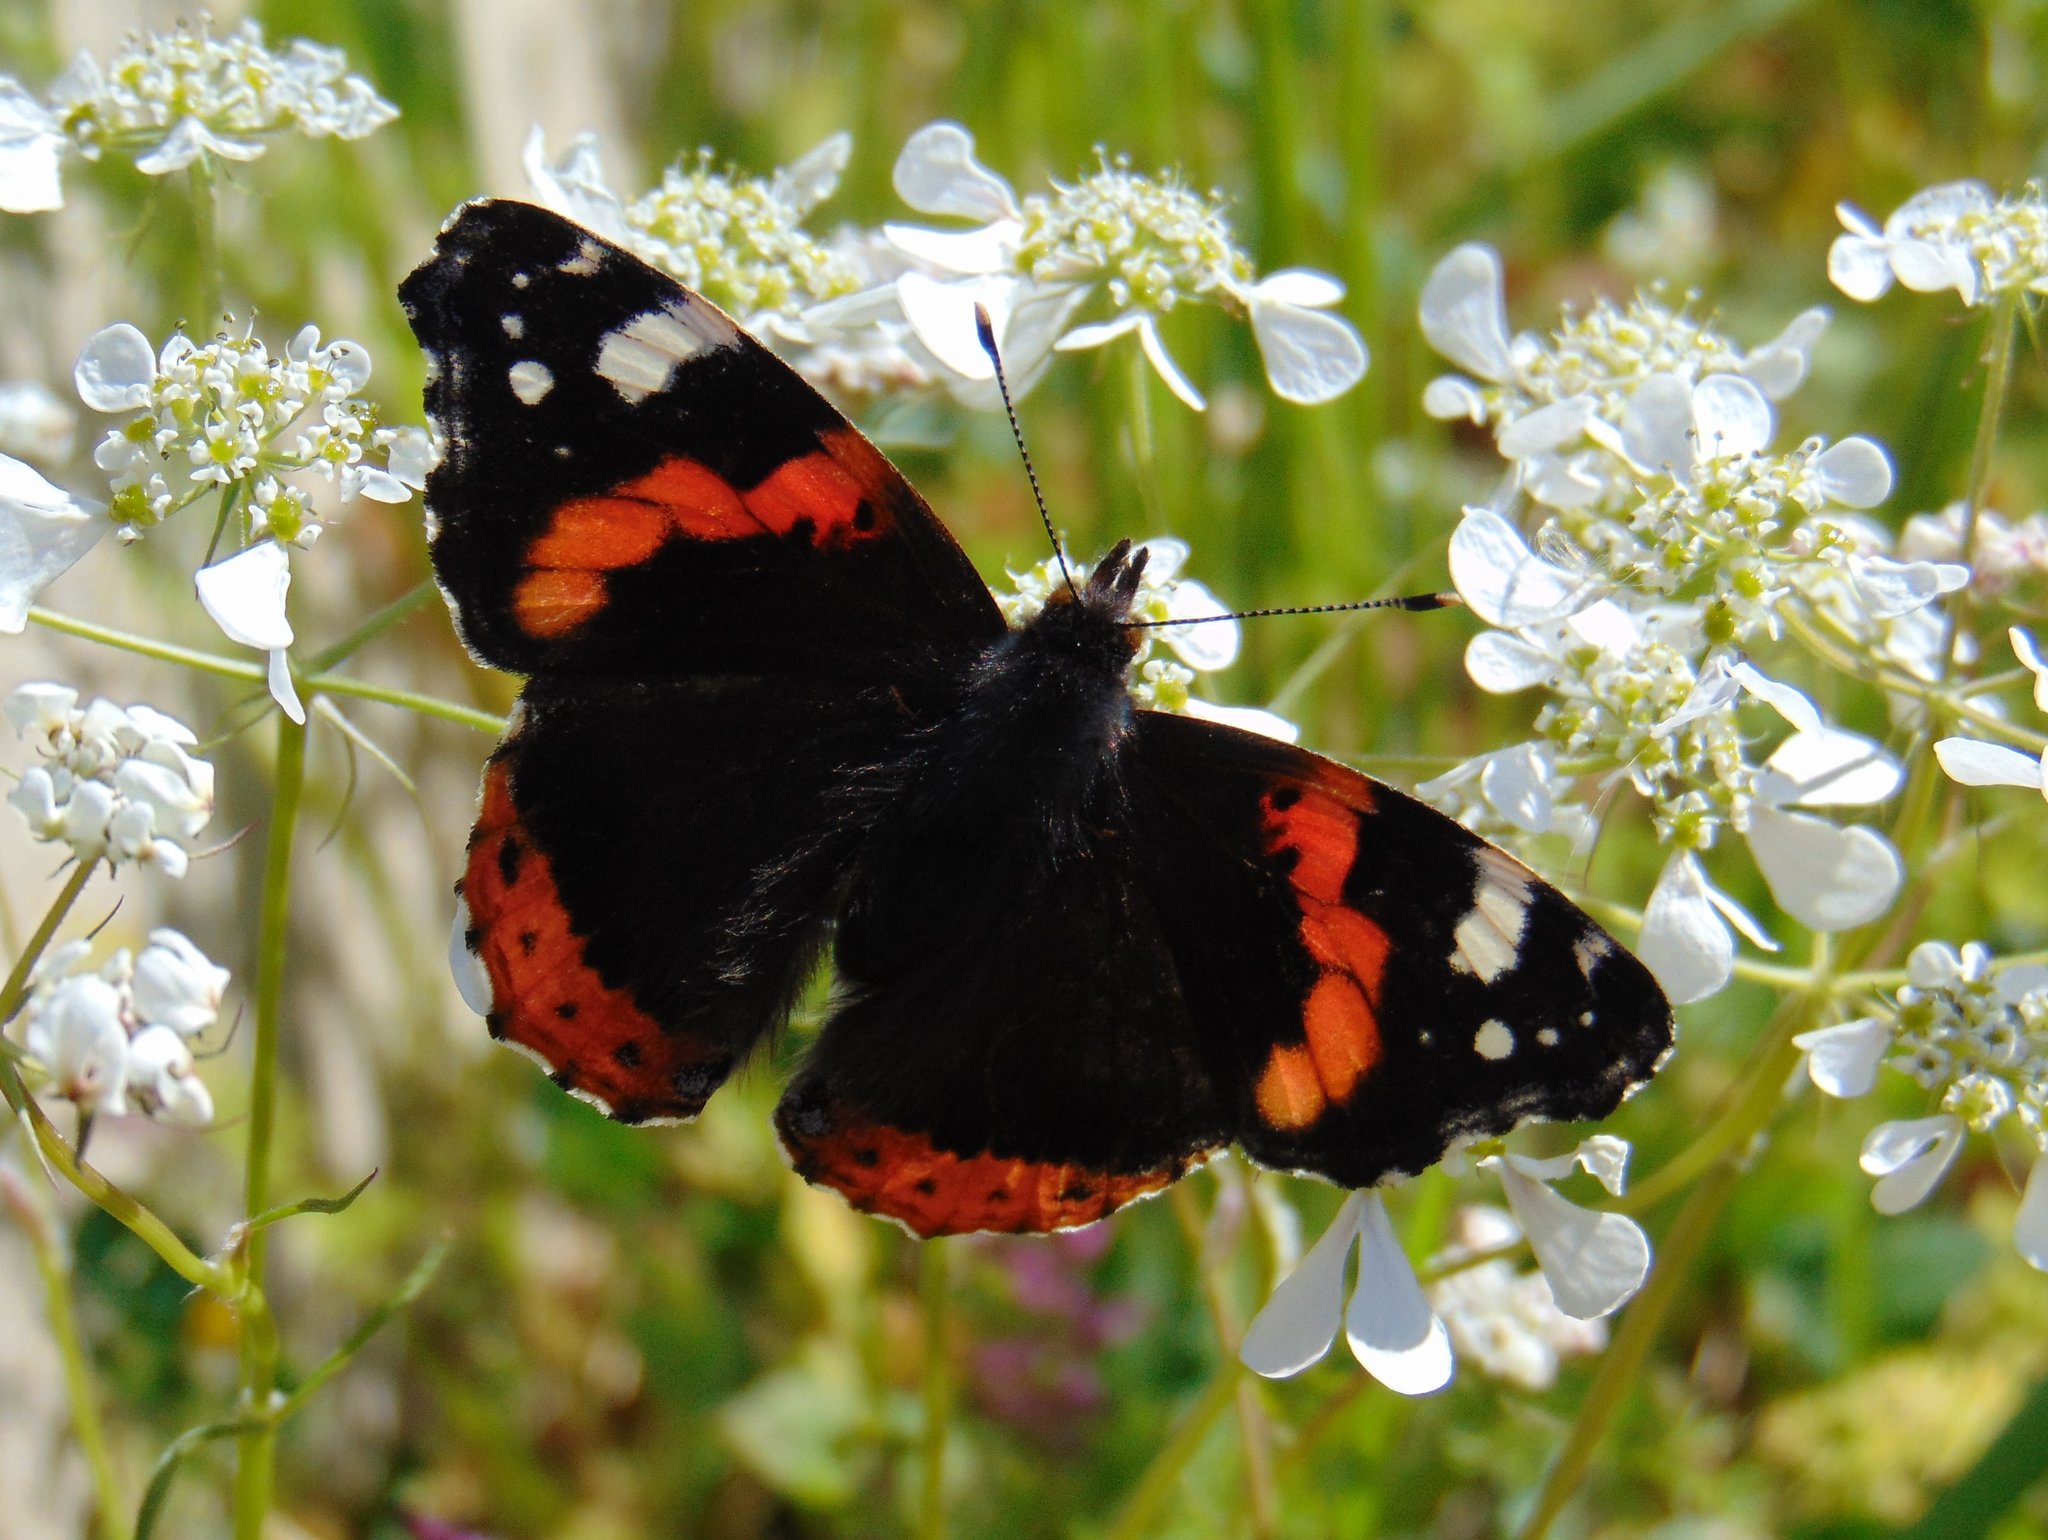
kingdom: Animalia
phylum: Arthropoda
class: Insecta
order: Lepidoptera
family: Nymphalidae
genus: Vanessa
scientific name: Vanessa atalanta
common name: Red admiral
